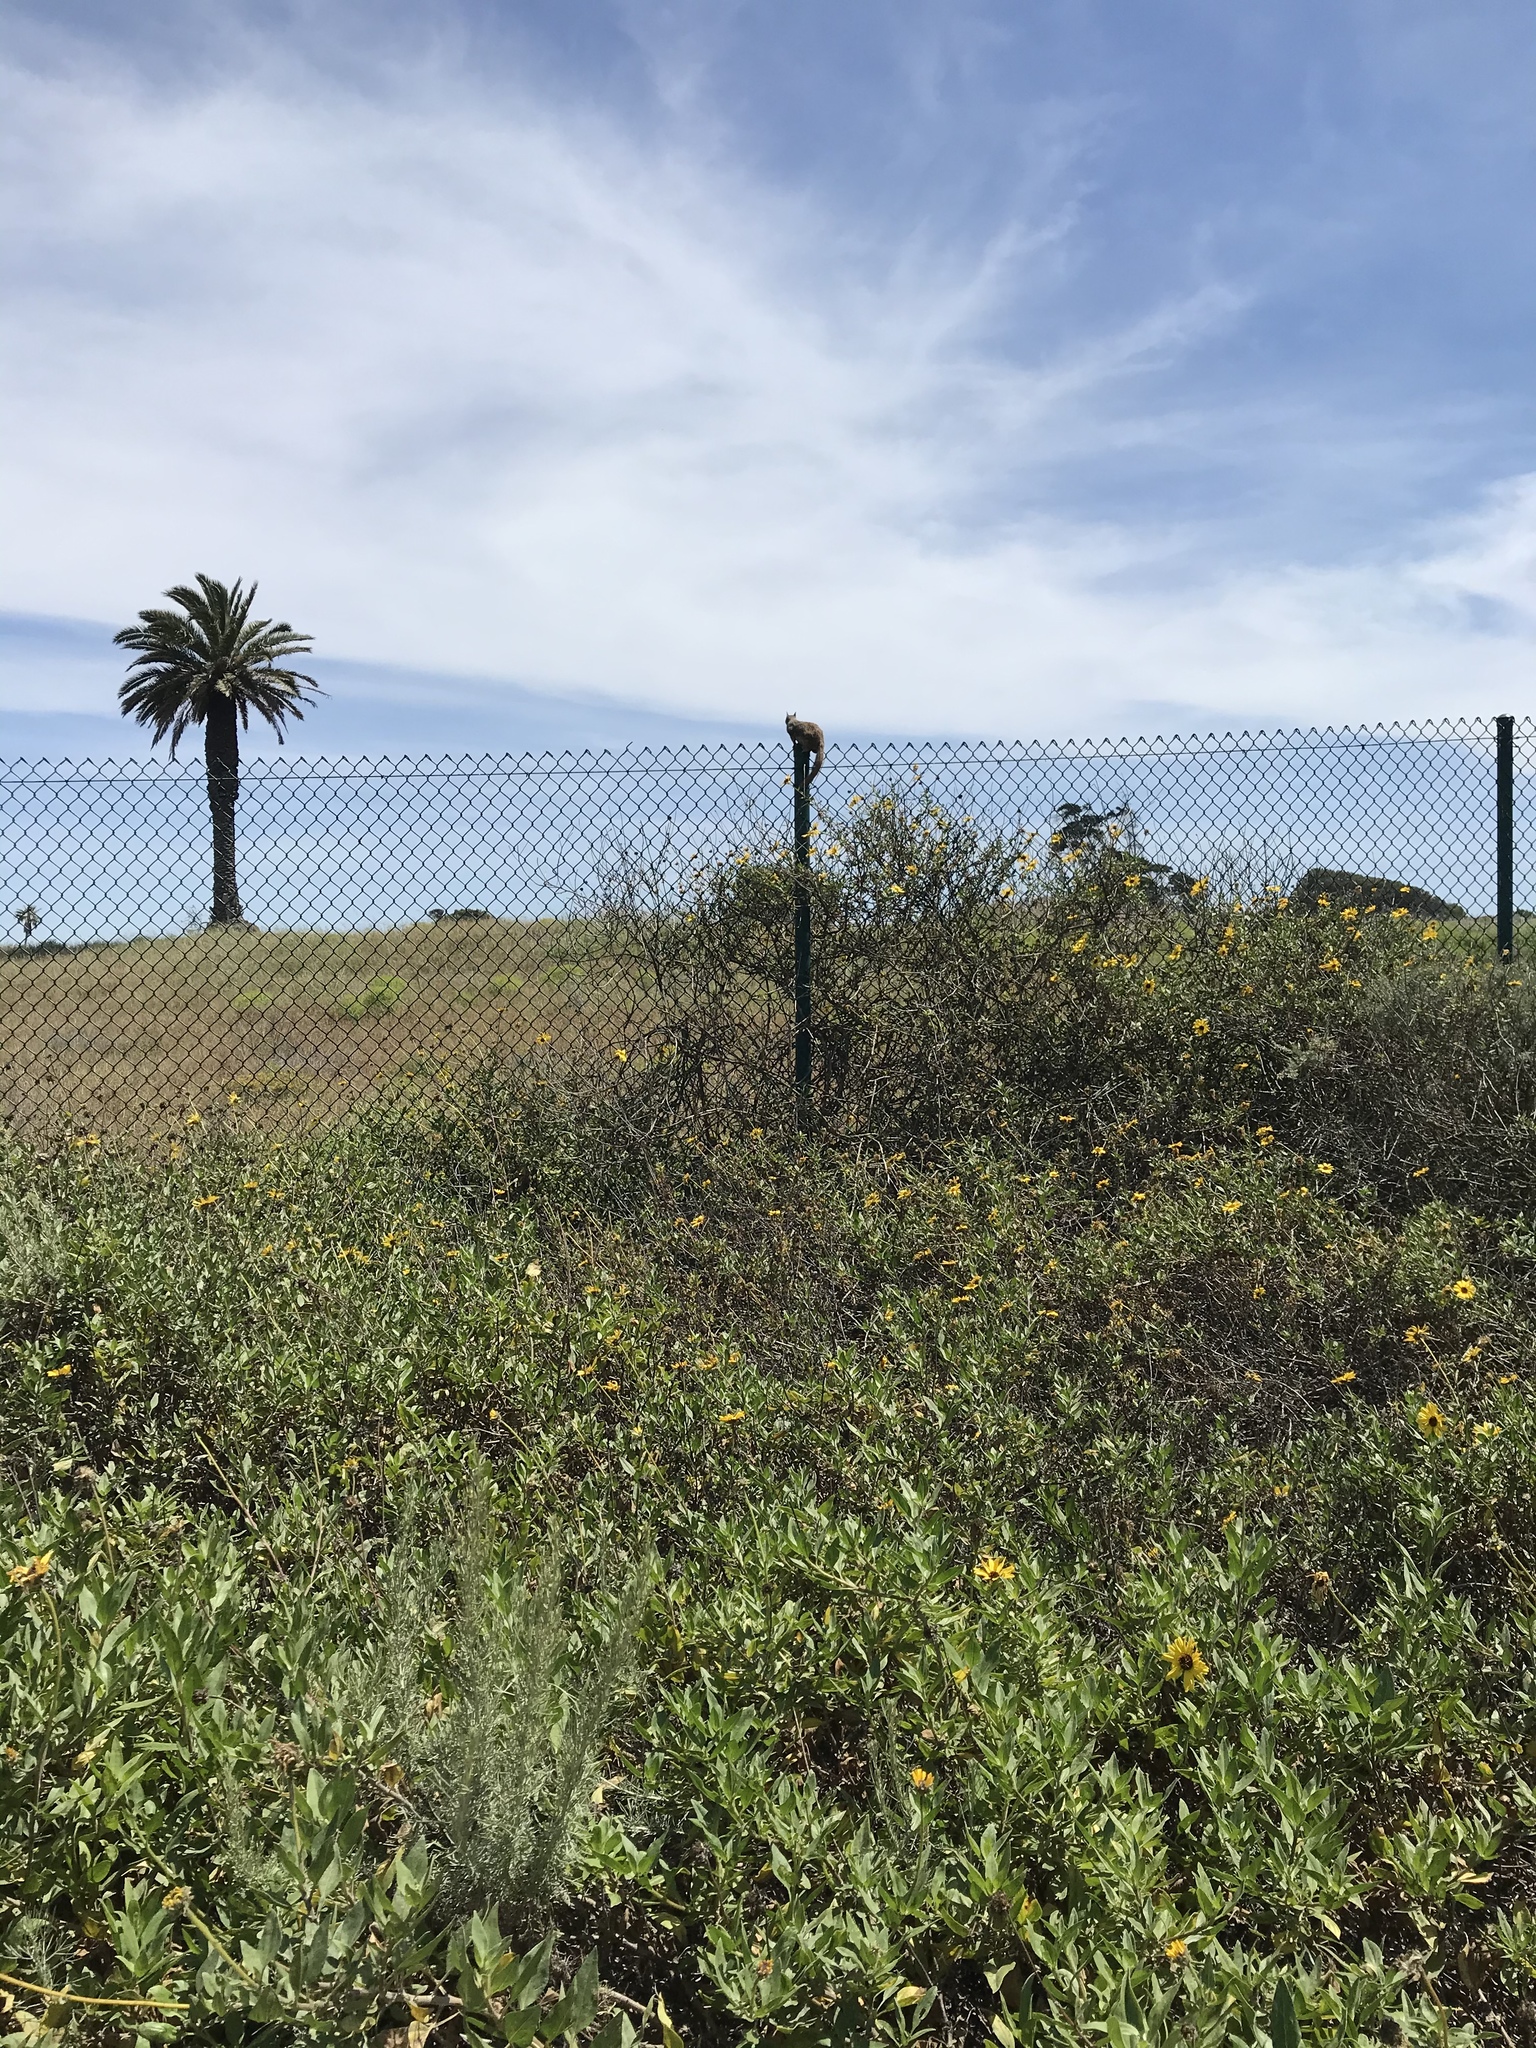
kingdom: Animalia
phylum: Chordata
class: Mammalia
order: Rodentia
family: Sciuridae
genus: Otospermophilus
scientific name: Otospermophilus beecheyi
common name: California ground squirrel
